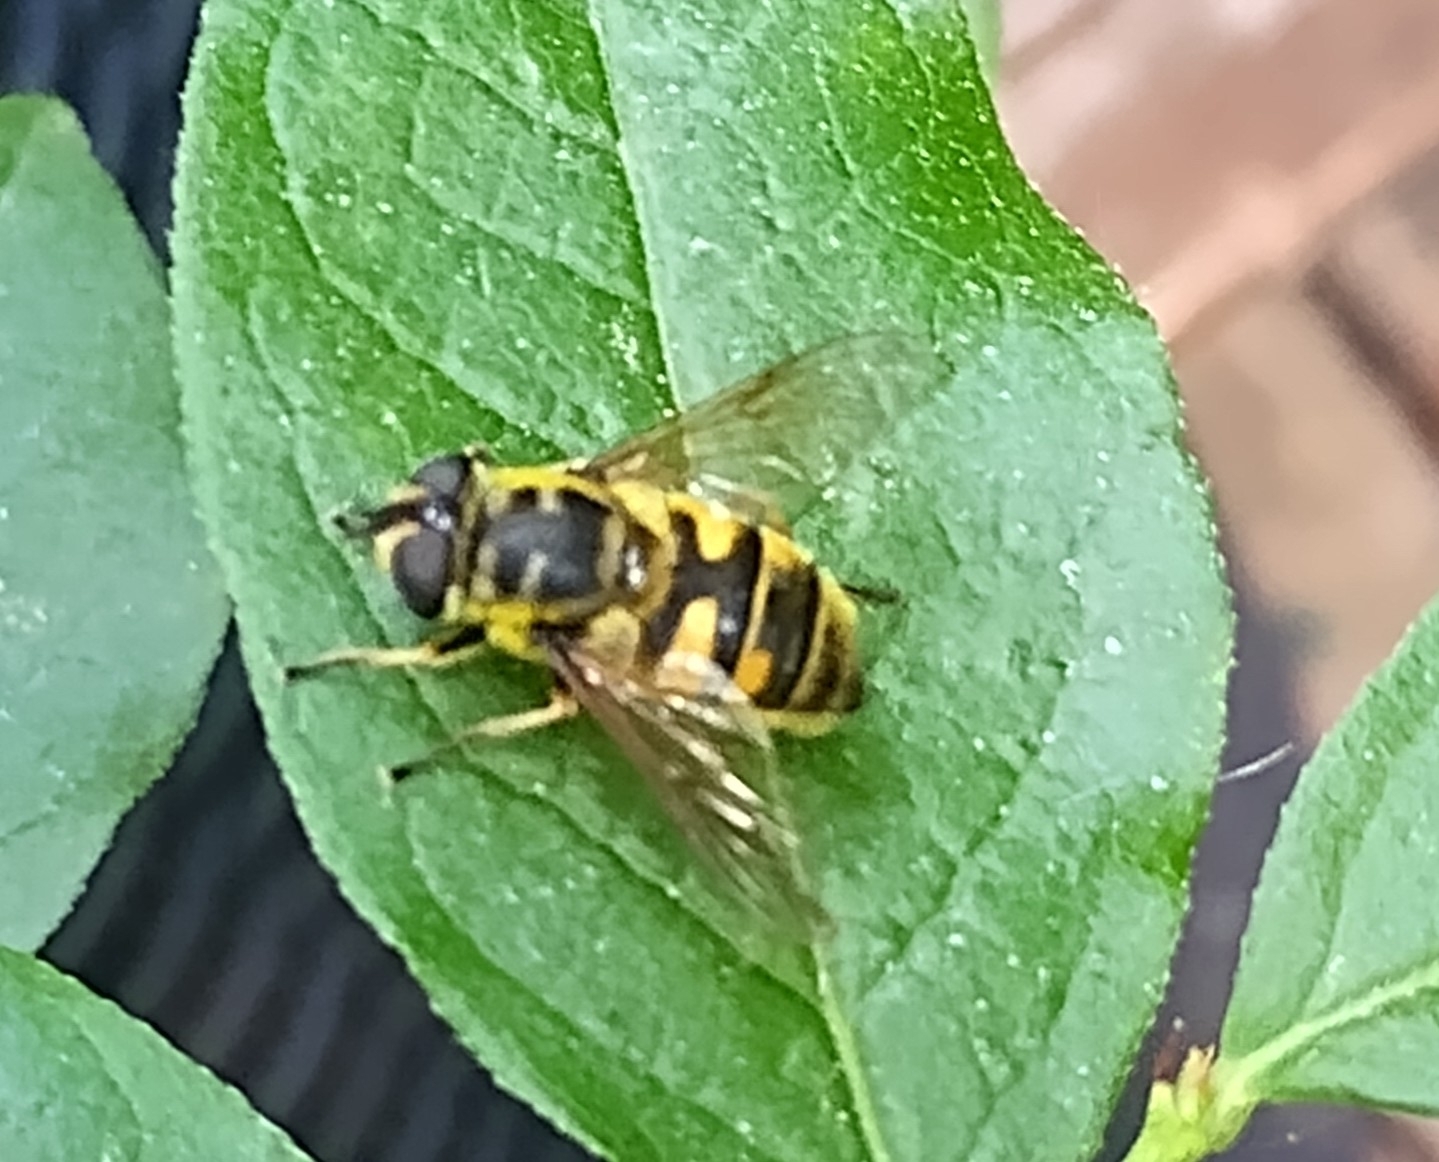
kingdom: Animalia
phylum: Arthropoda
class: Insecta
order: Diptera
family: Syrphidae
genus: Myathropa
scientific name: Myathropa florea
